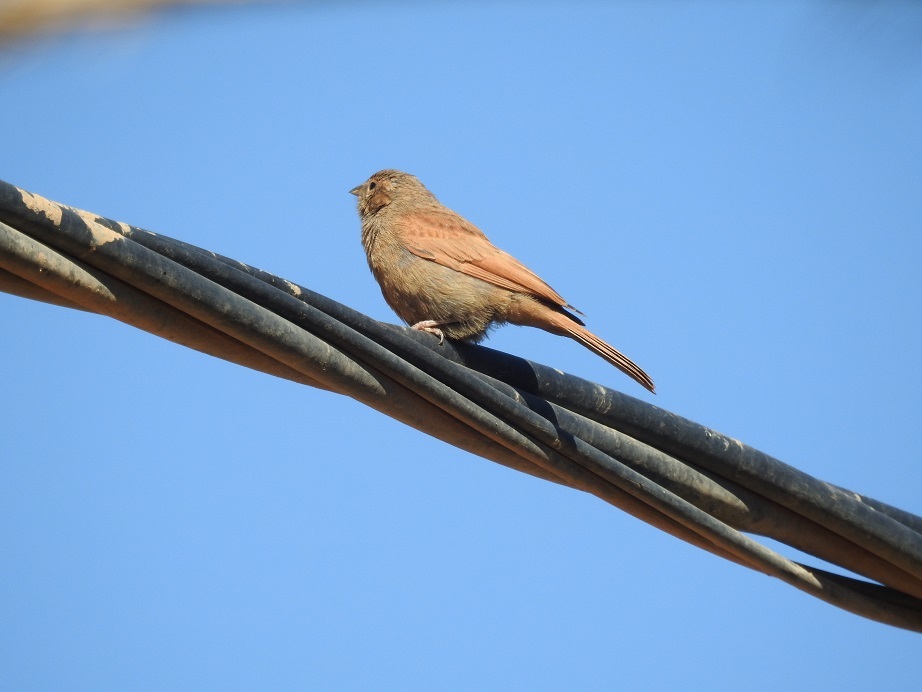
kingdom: Animalia
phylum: Chordata
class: Aves
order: Passeriformes
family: Emberizidae
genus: Emberiza
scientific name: Emberiza sahari
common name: House bunting
